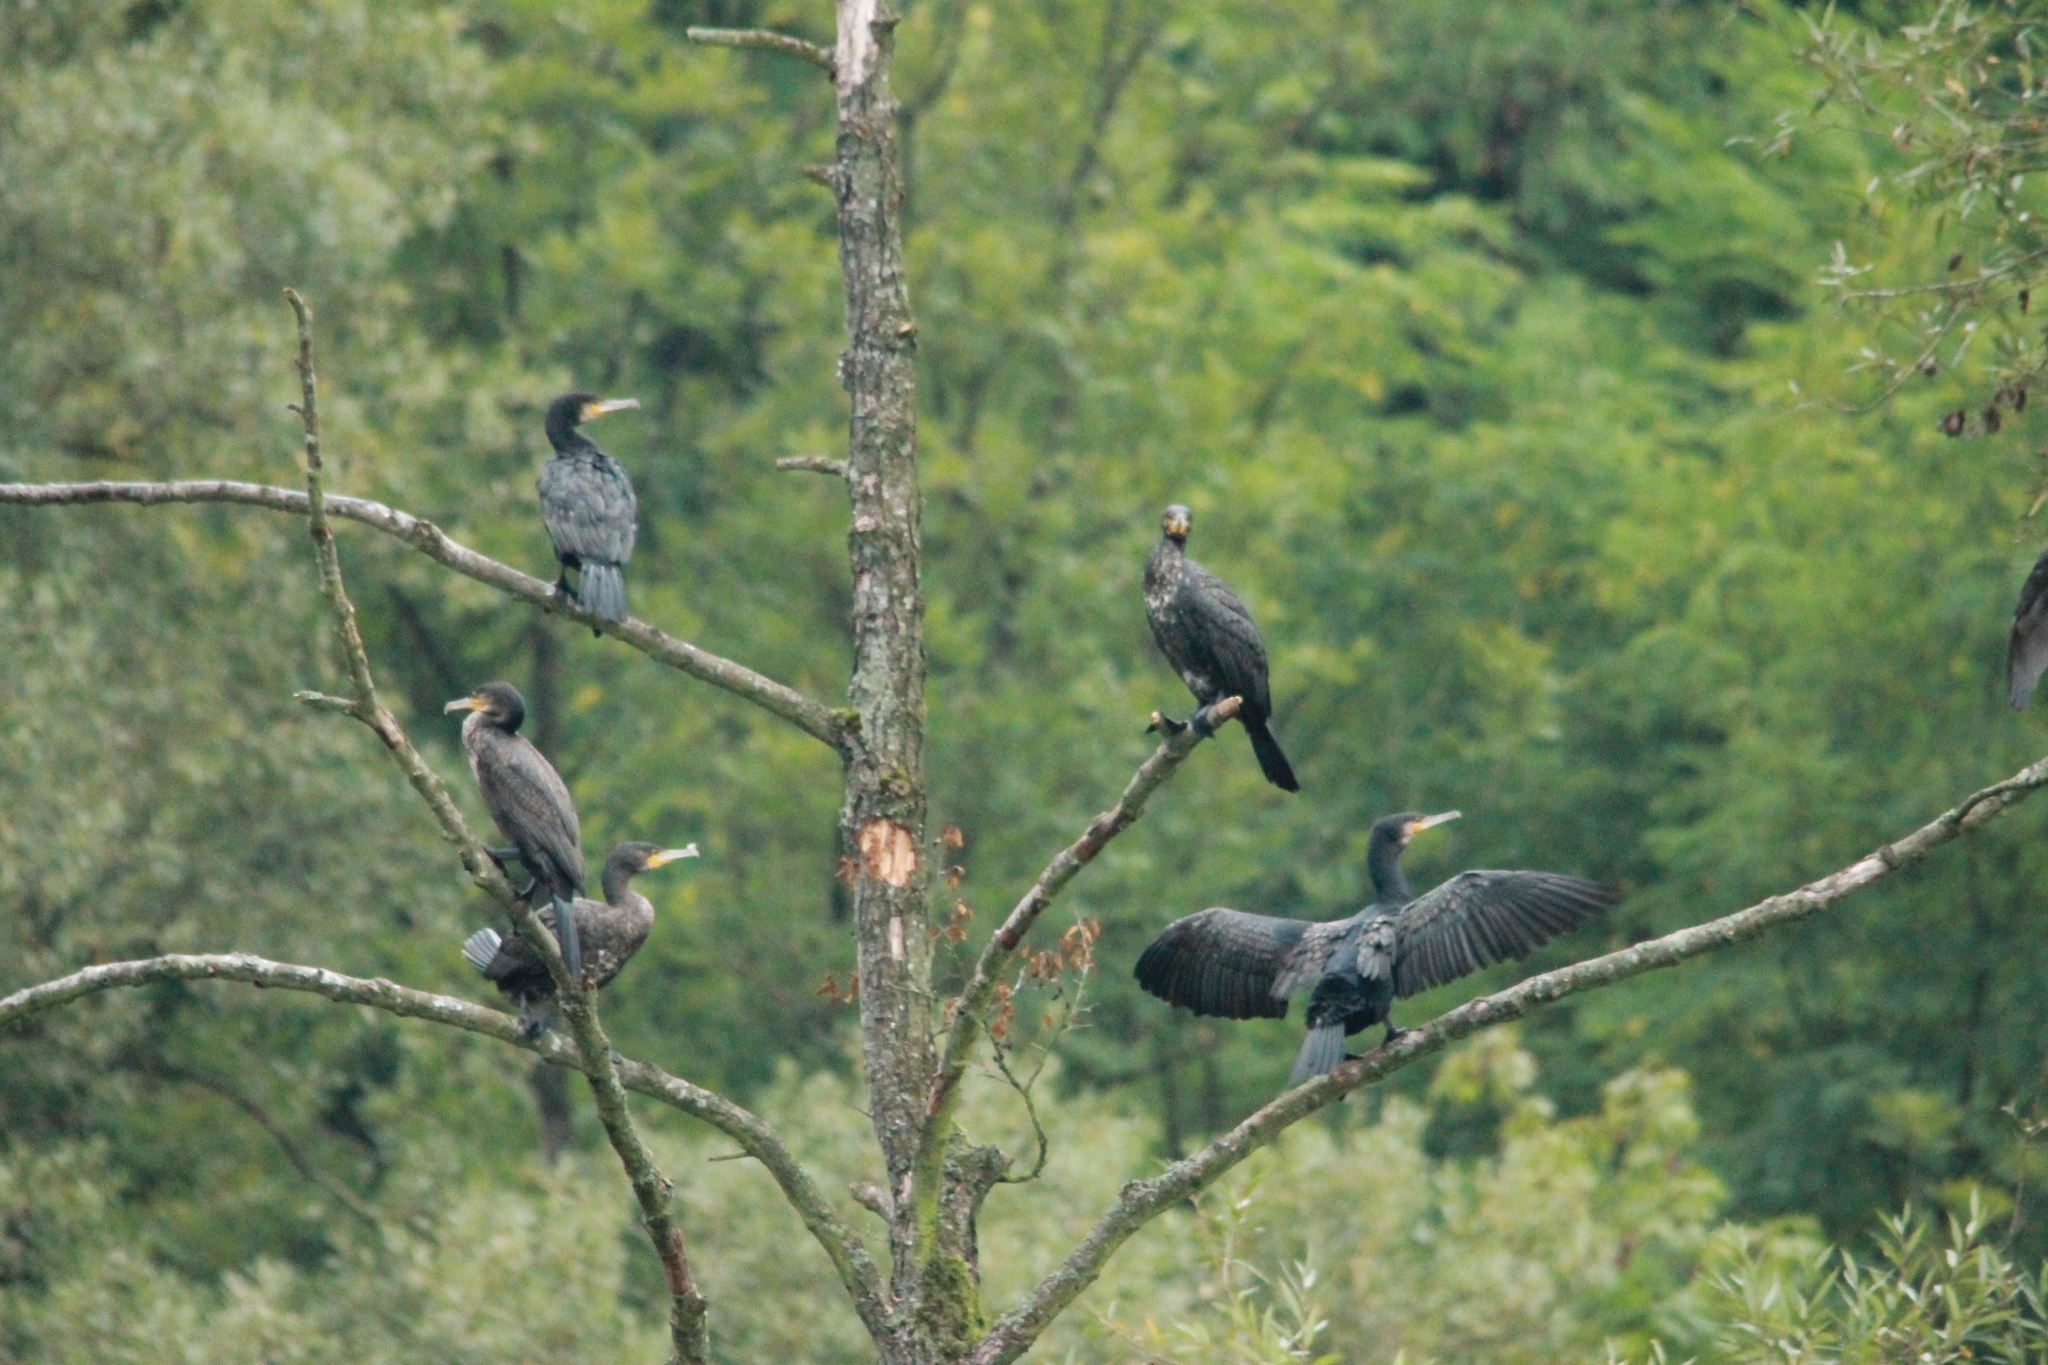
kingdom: Animalia
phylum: Chordata
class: Aves
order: Suliformes
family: Phalacrocoracidae
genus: Phalacrocorax
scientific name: Phalacrocorax carbo
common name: Great cormorant
